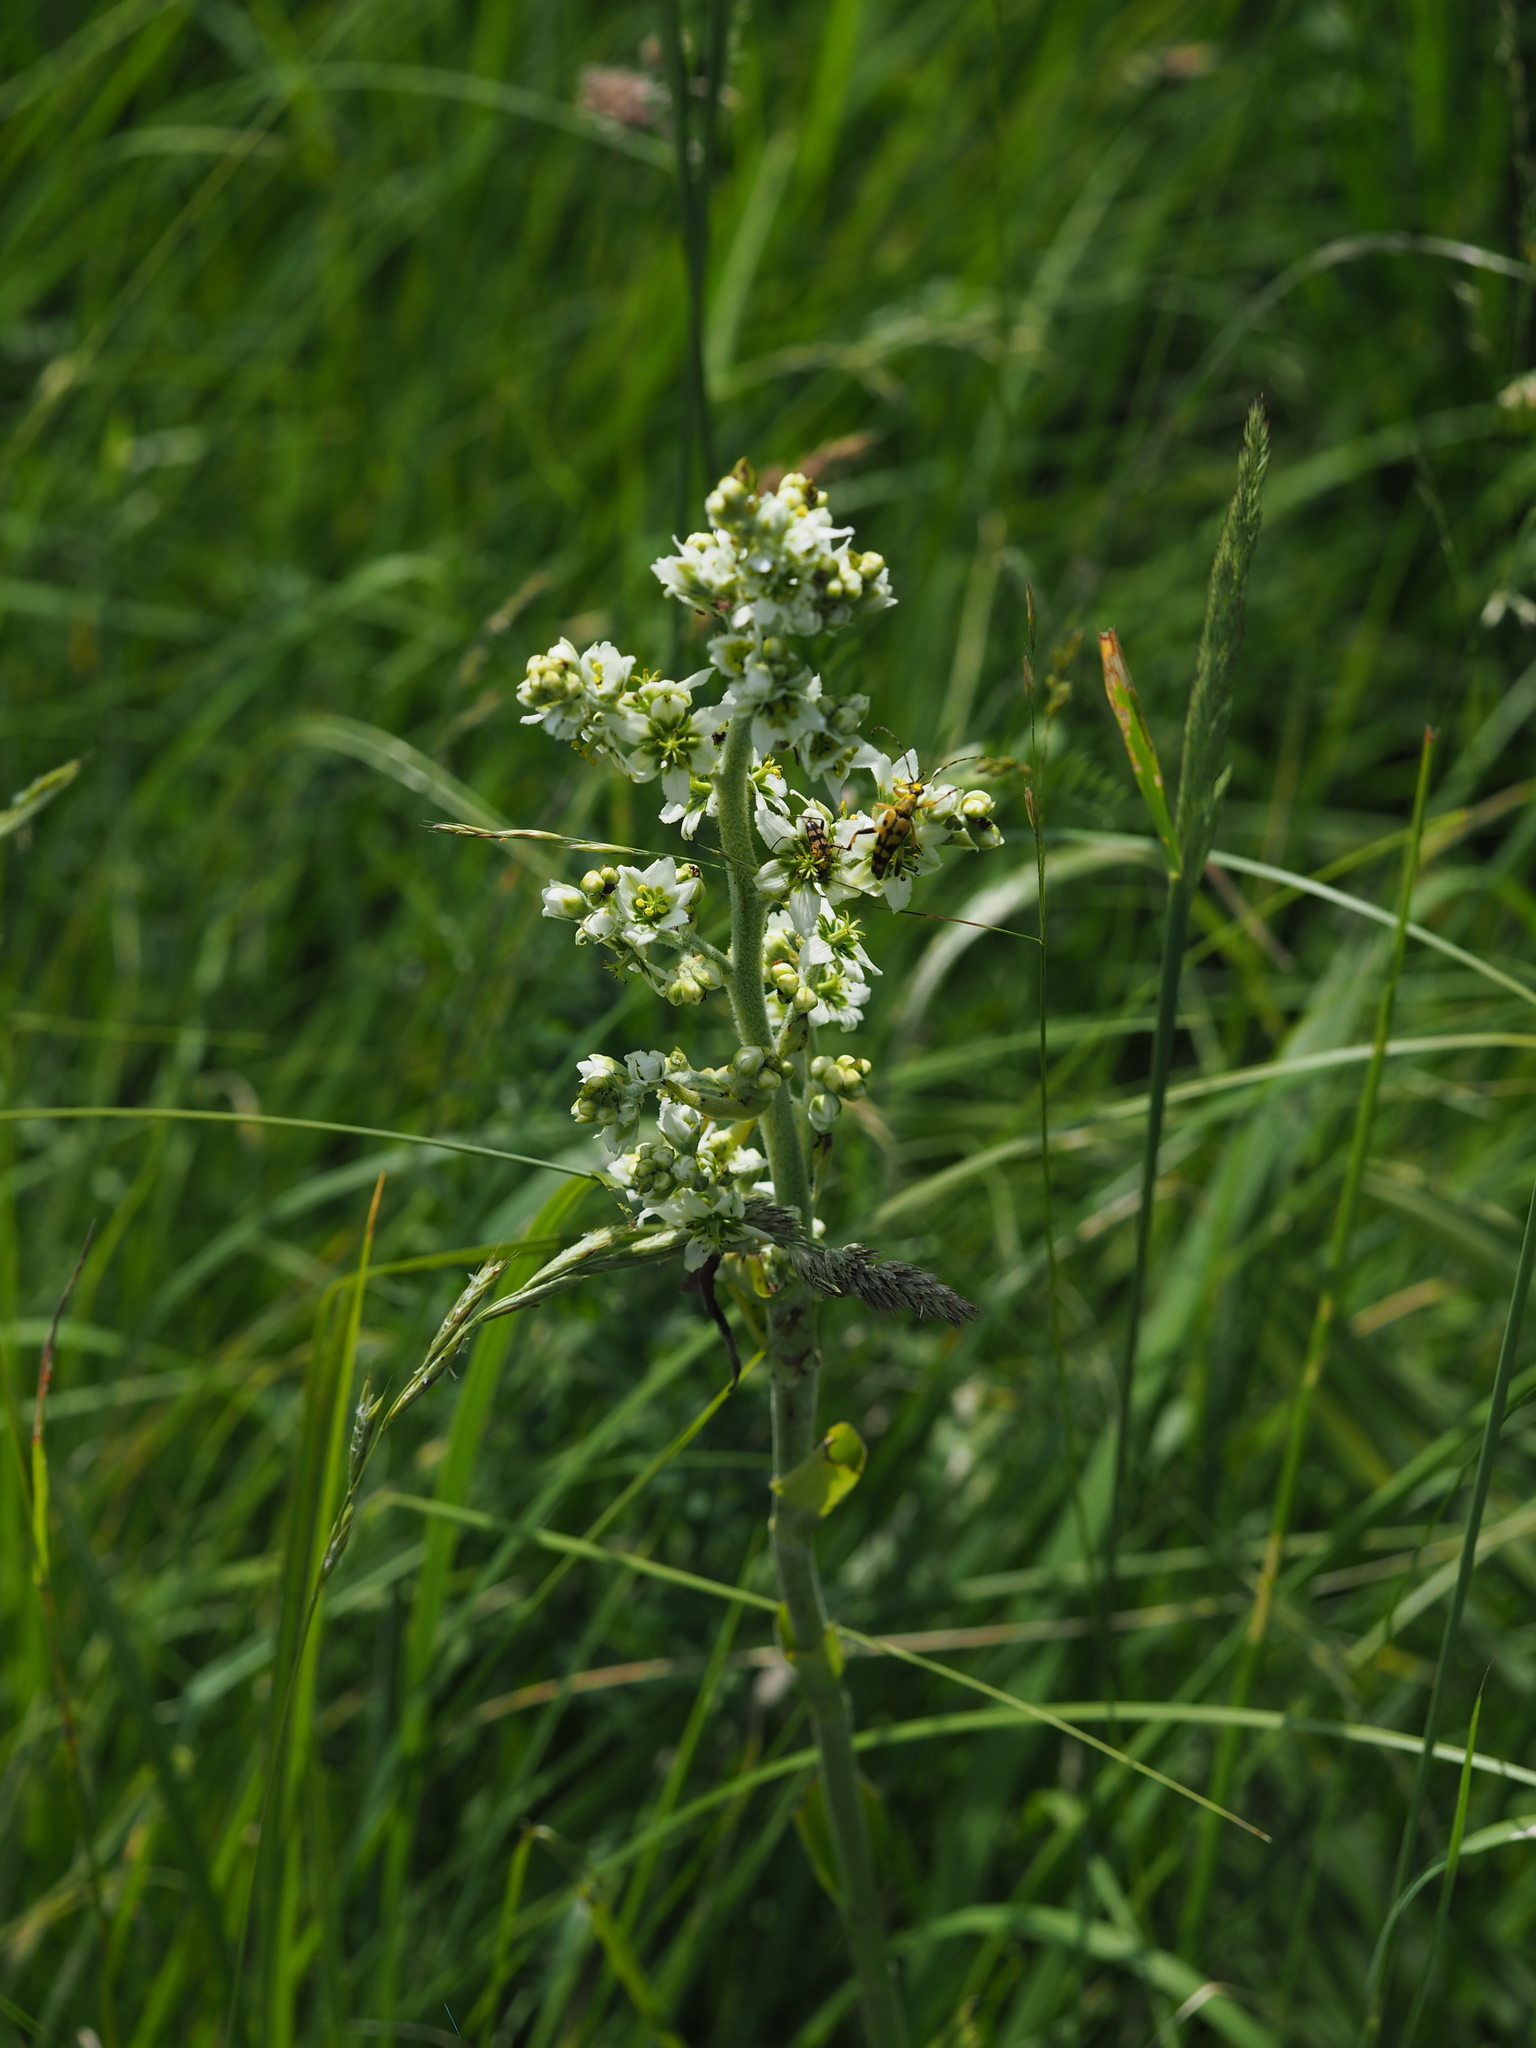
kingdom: Plantae
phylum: Tracheophyta
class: Liliopsida
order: Liliales
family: Melanthiaceae
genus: Veratrum
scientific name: Veratrum album
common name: White veratrum
